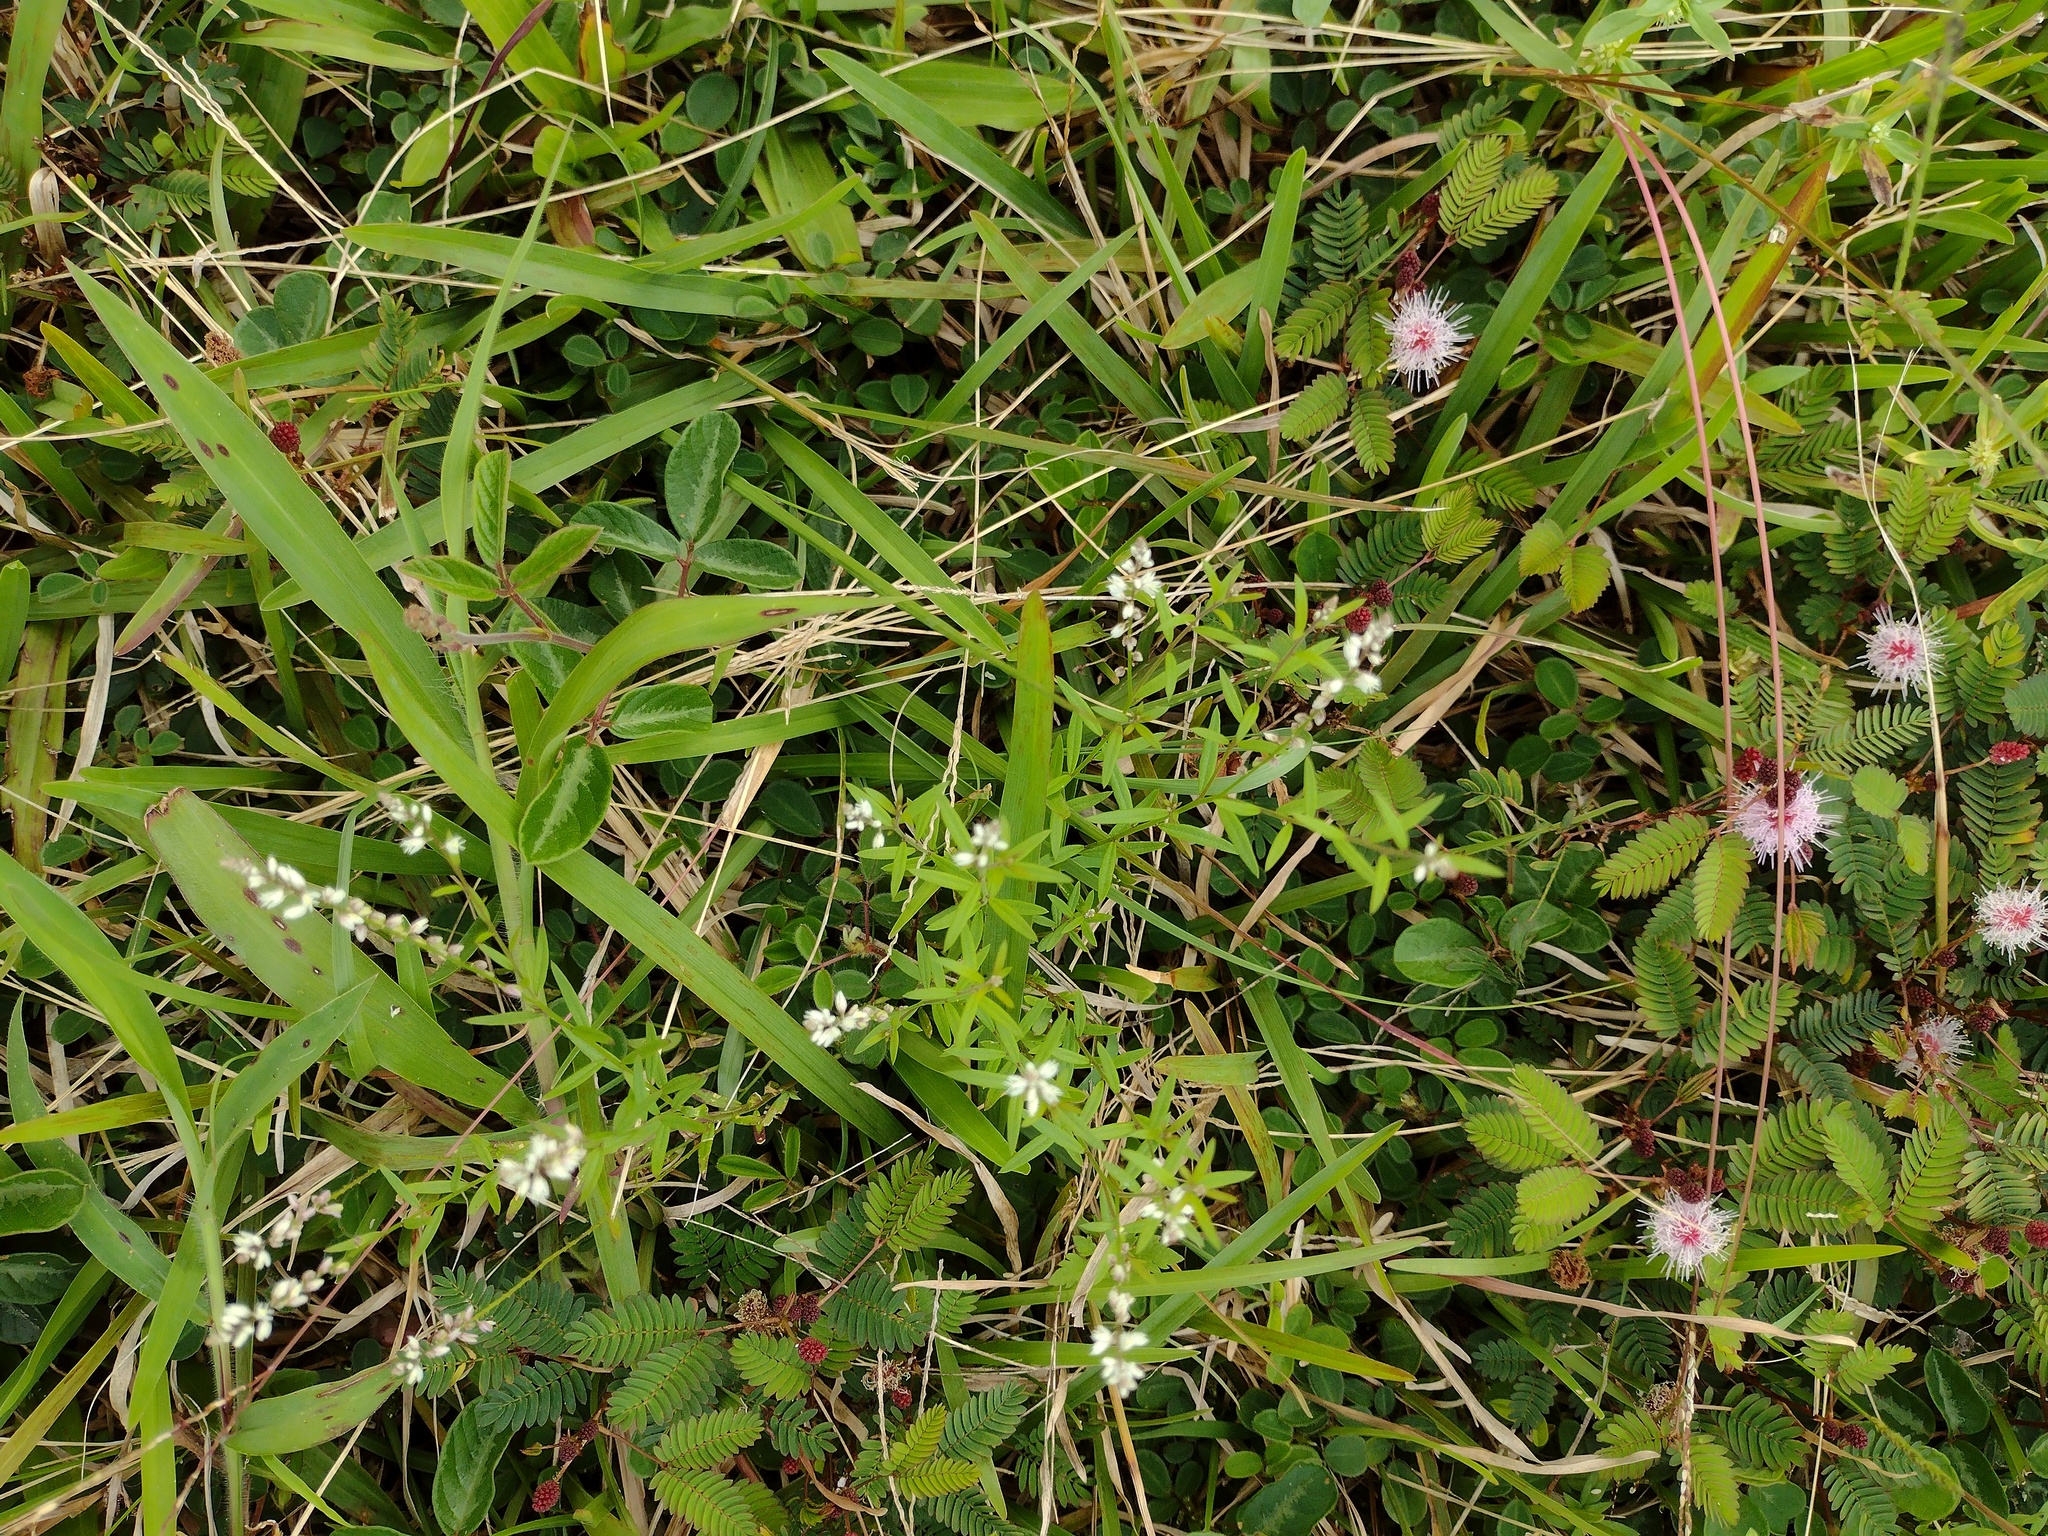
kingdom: Plantae
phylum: Tracheophyta
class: Magnoliopsida
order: Fabales
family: Polygalaceae
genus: Polygala
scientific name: Polygala paniculata
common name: Orosne
